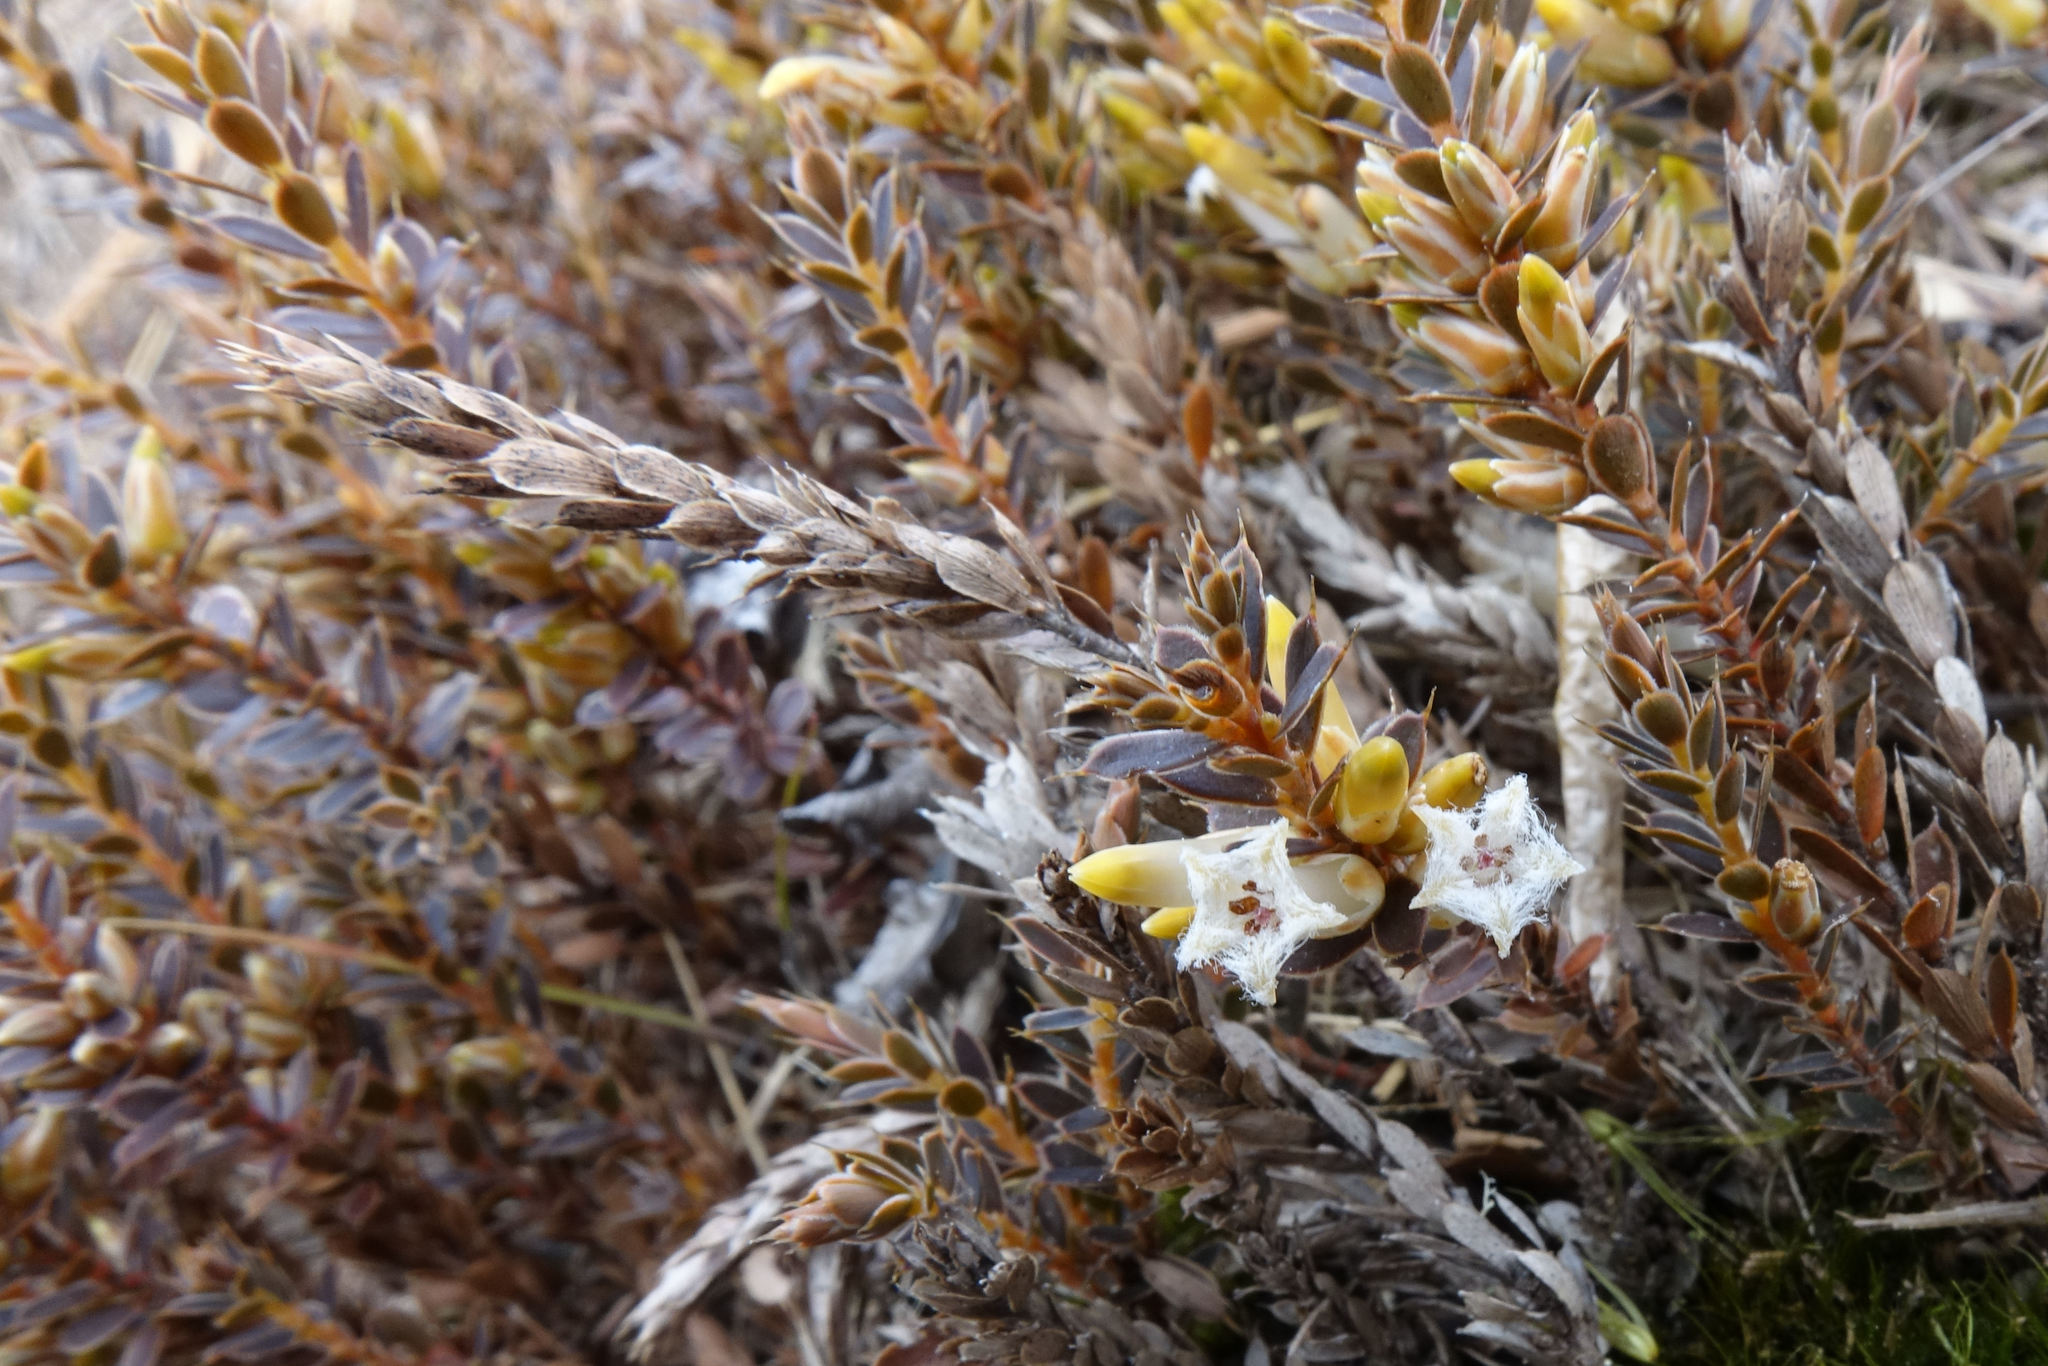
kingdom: Plantae
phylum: Tracheophyta
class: Magnoliopsida
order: Ericales
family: Ericaceae
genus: Styphelia
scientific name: Styphelia nesophila
